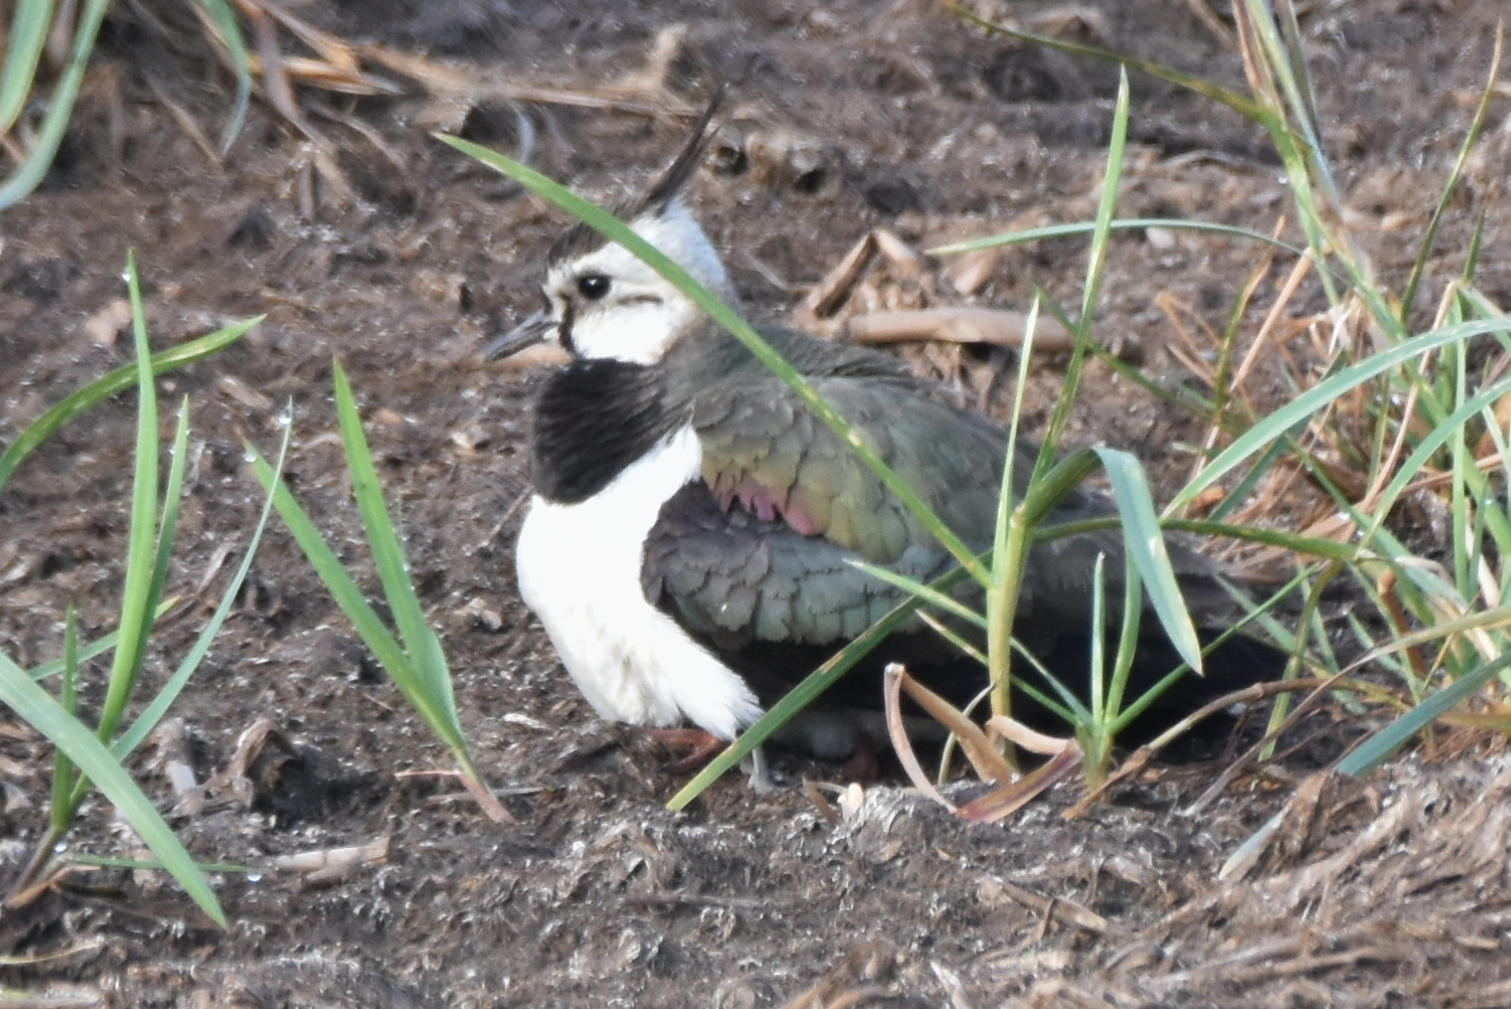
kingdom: Animalia
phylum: Chordata
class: Aves
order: Charadriiformes
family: Charadriidae
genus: Vanellus
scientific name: Vanellus vanellus
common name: Northern lapwing
